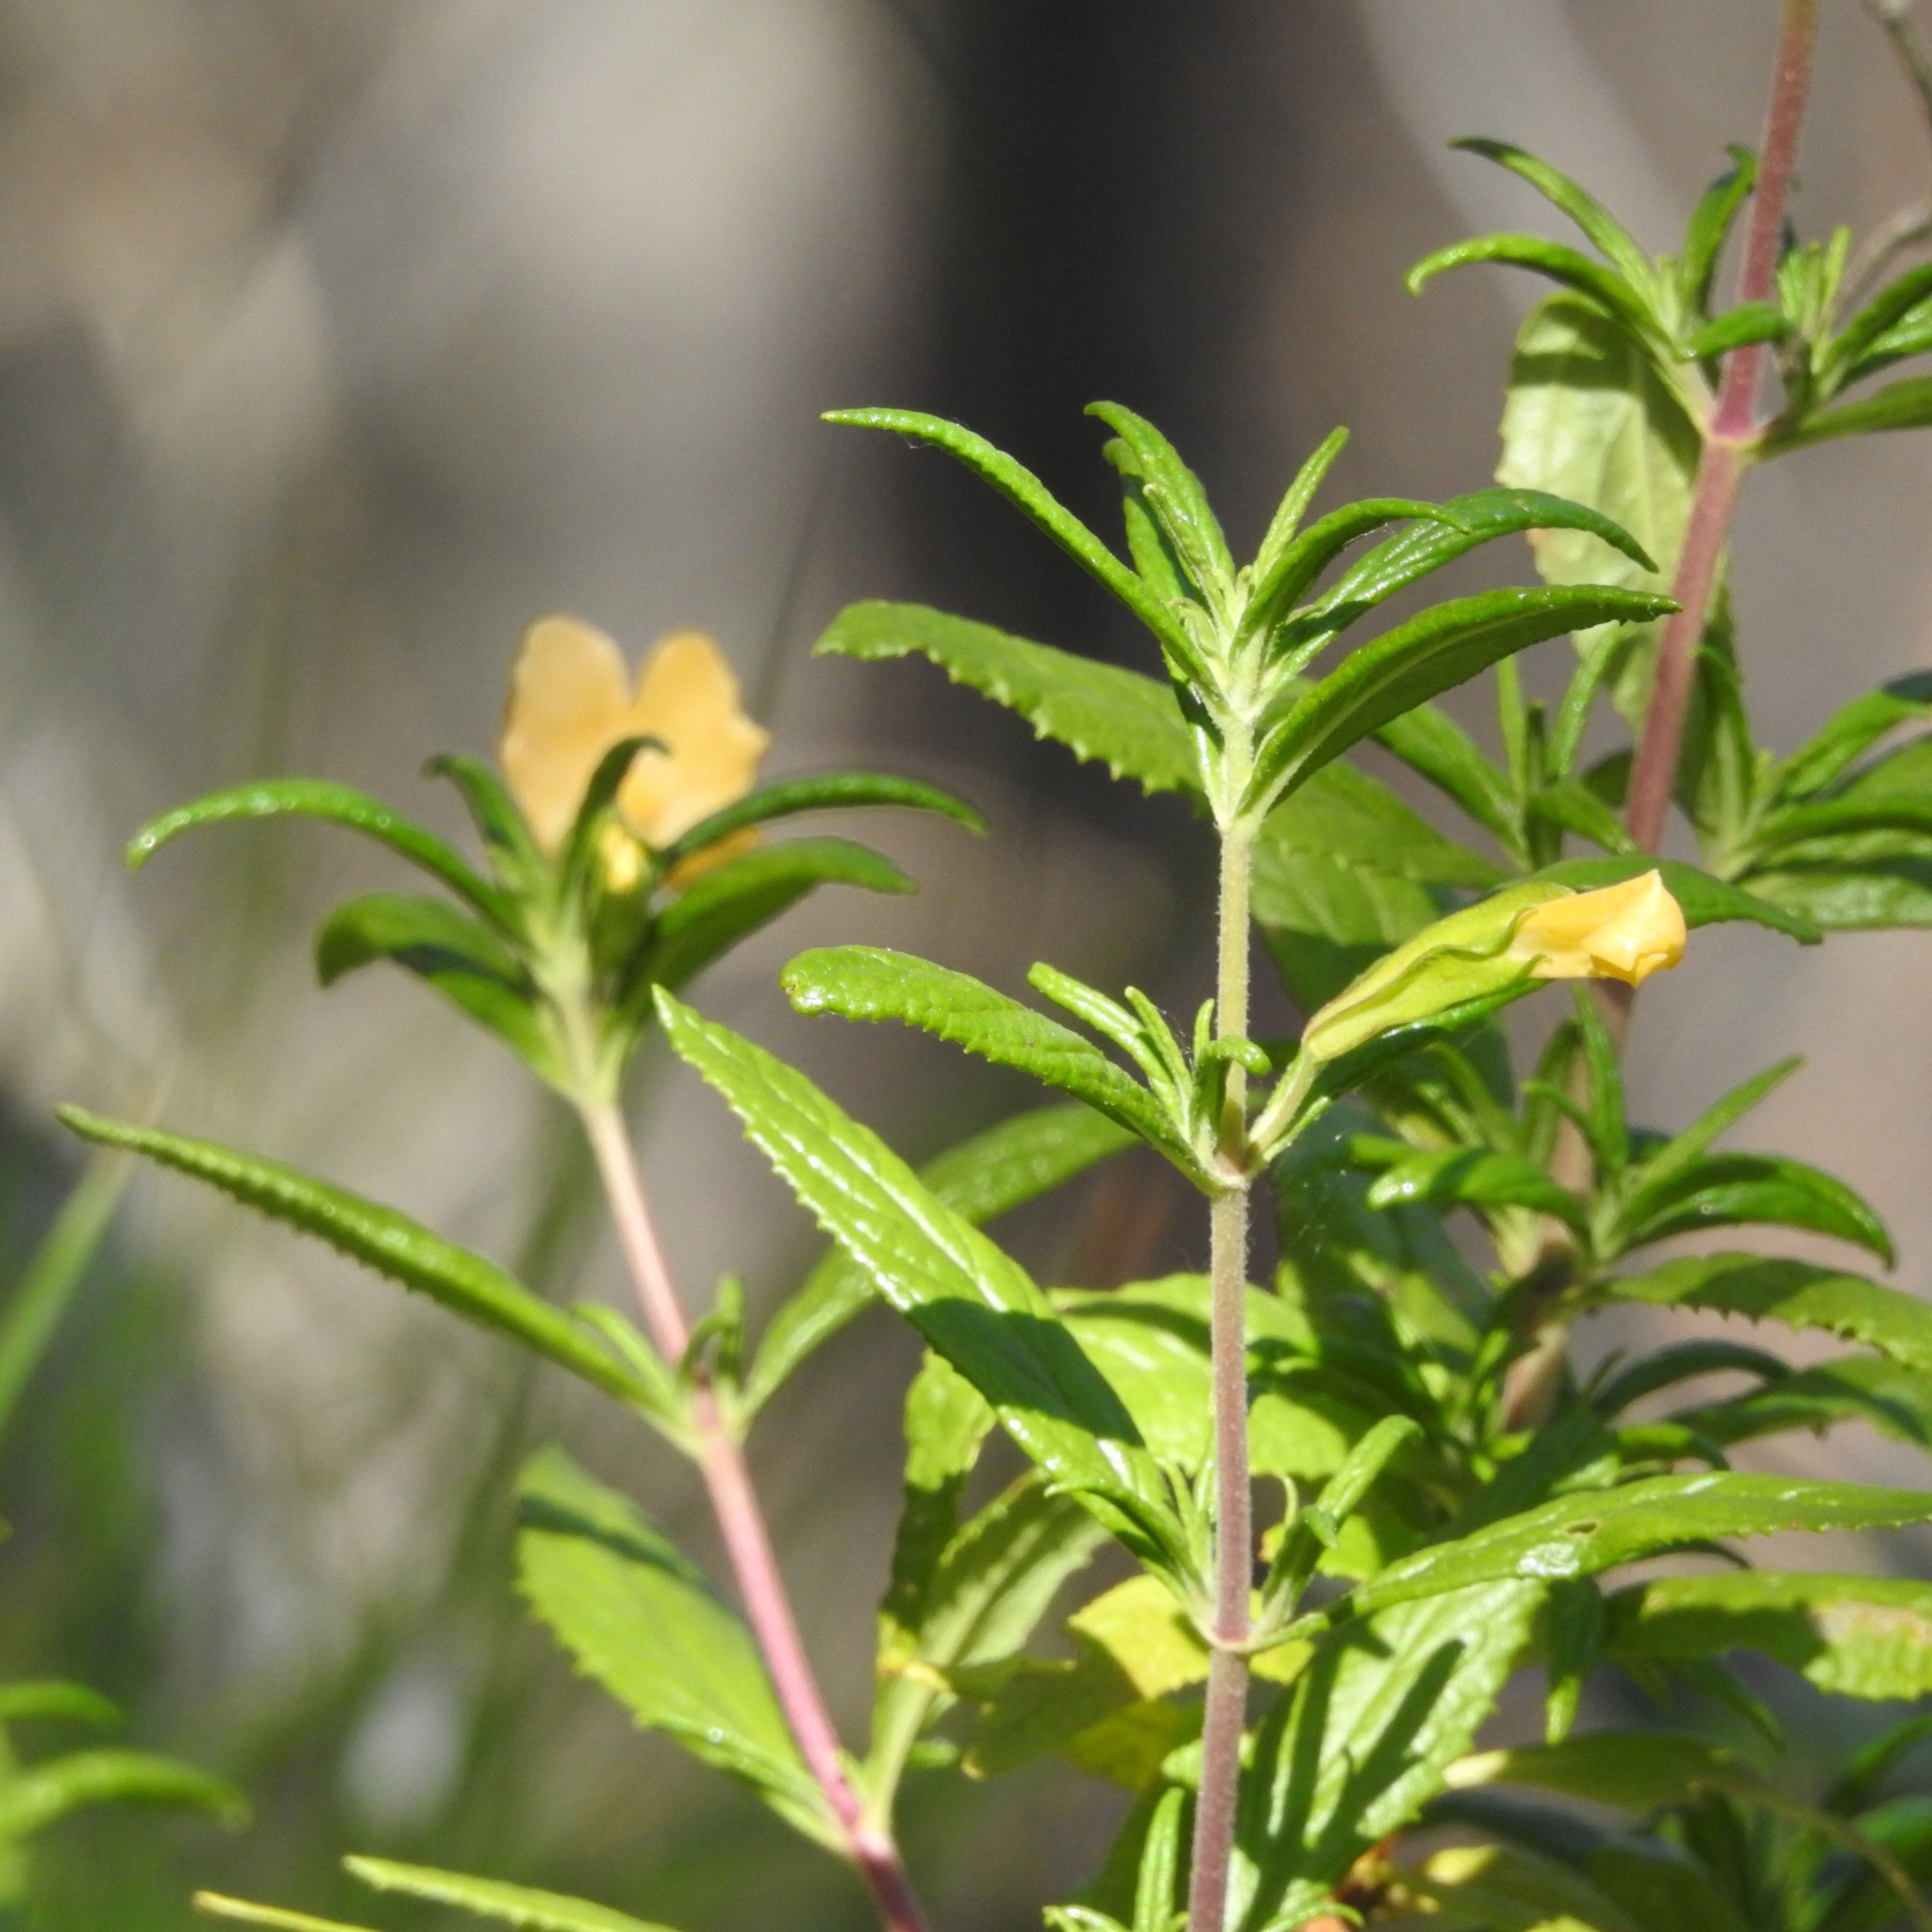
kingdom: Plantae
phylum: Tracheophyta
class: Magnoliopsida
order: Lamiales
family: Phrymaceae
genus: Diplacus
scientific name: Diplacus aurantiacus
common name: Bush monkey-flower
